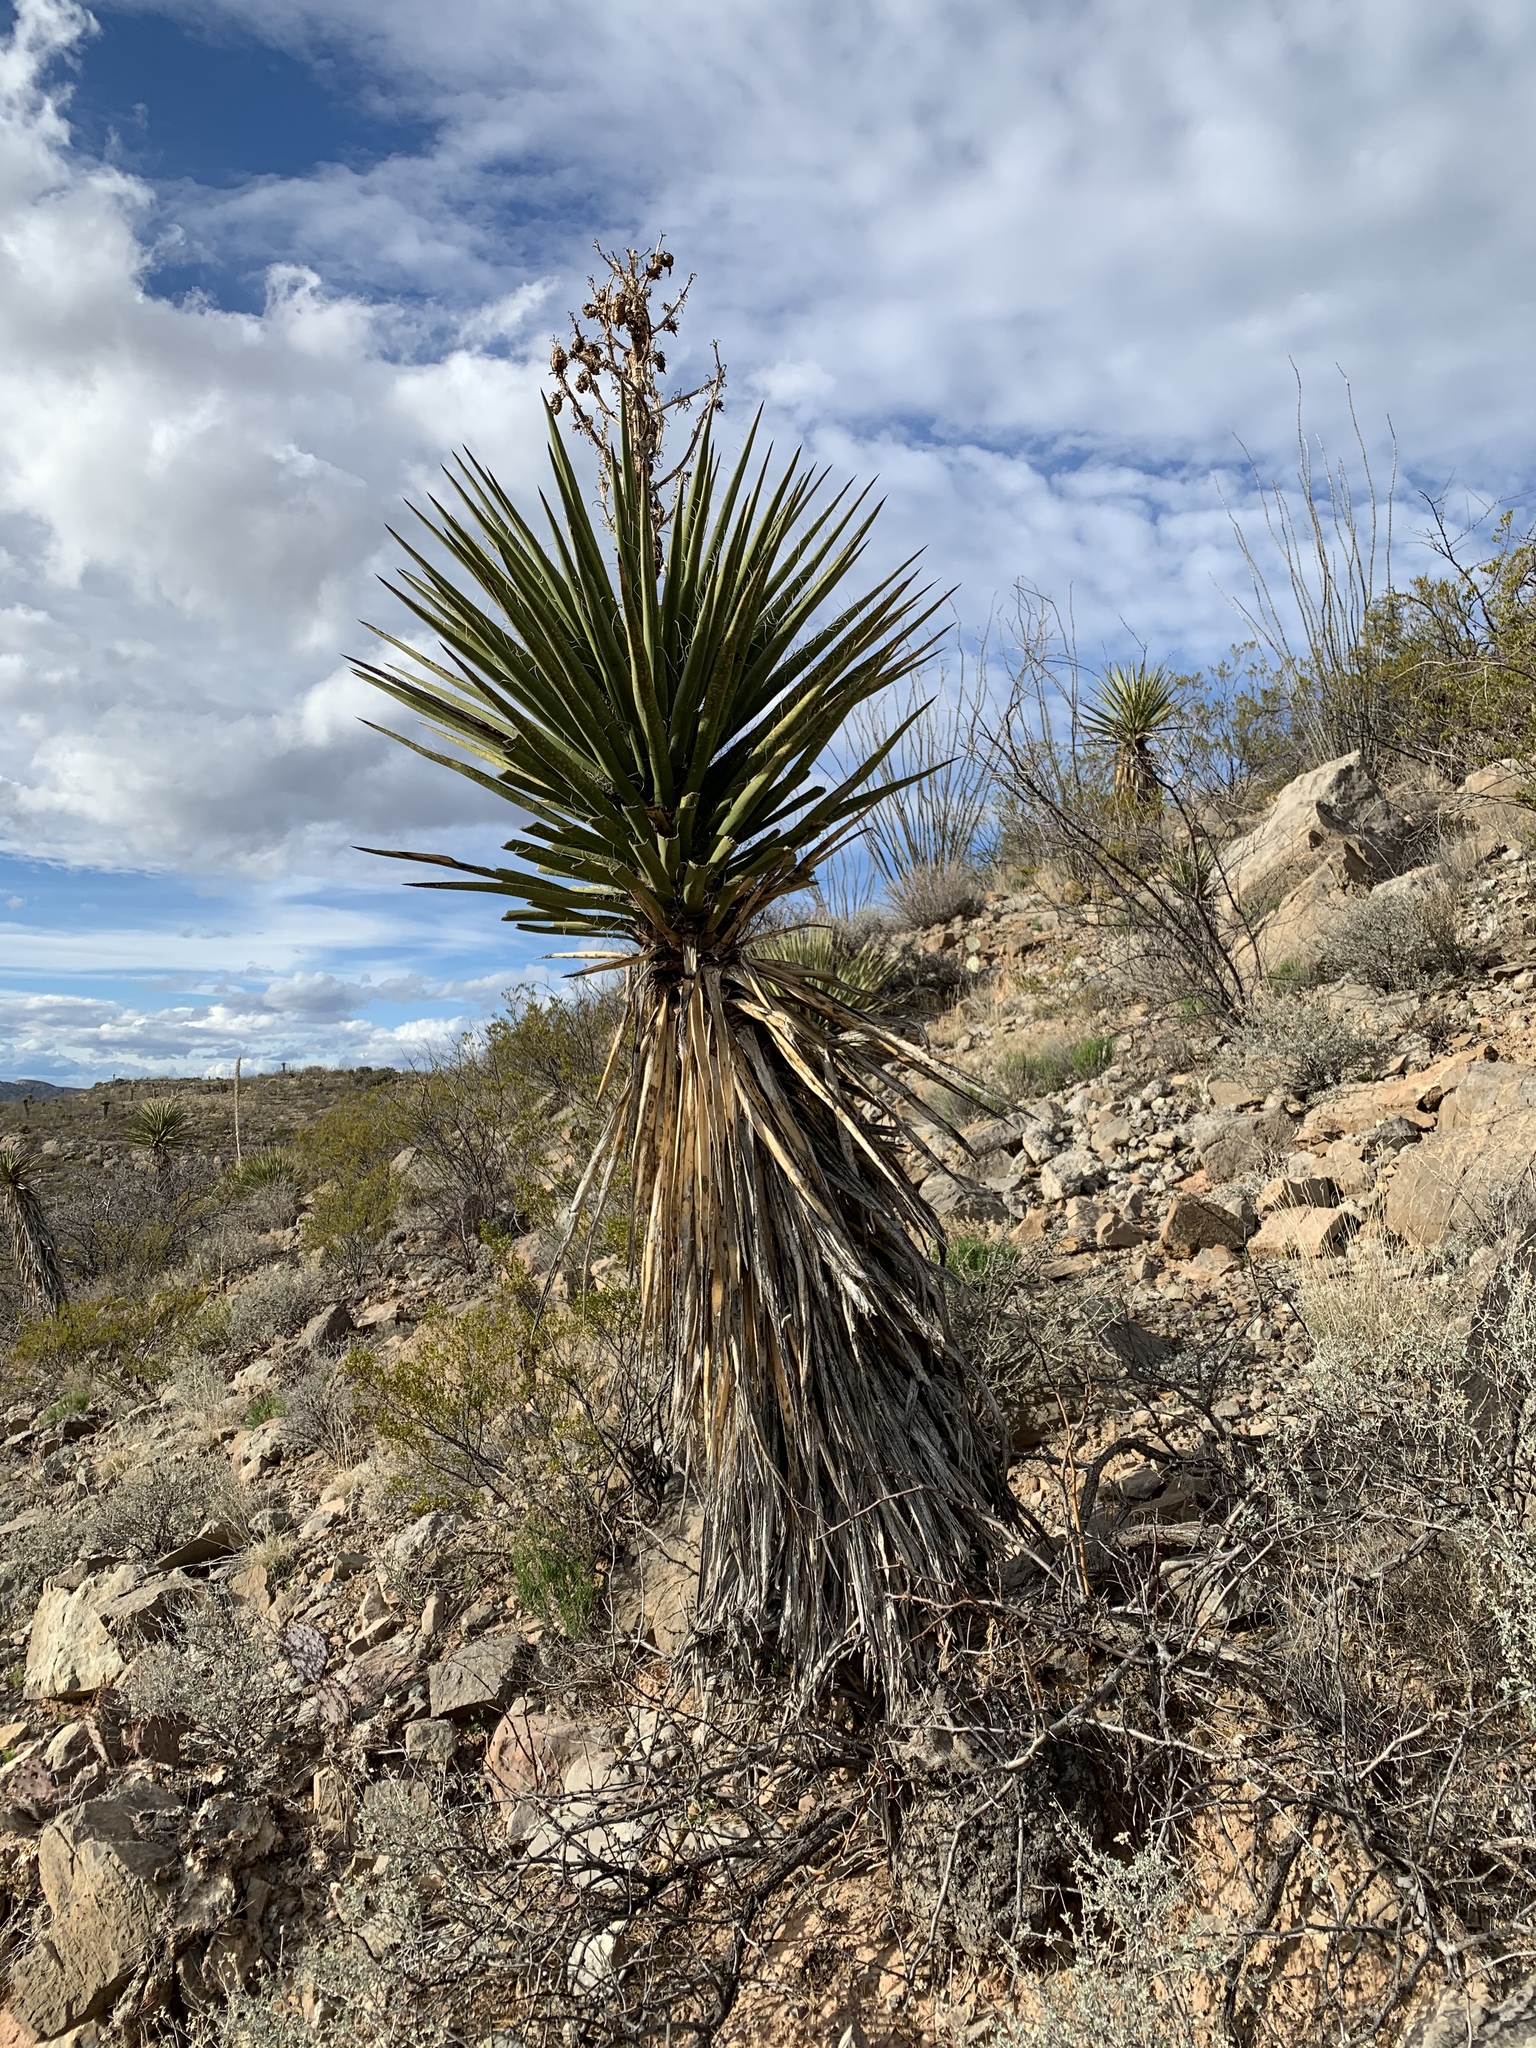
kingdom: Plantae
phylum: Tracheophyta
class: Liliopsida
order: Asparagales
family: Asparagaceae
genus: Yucca
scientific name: Yucca treculiana
